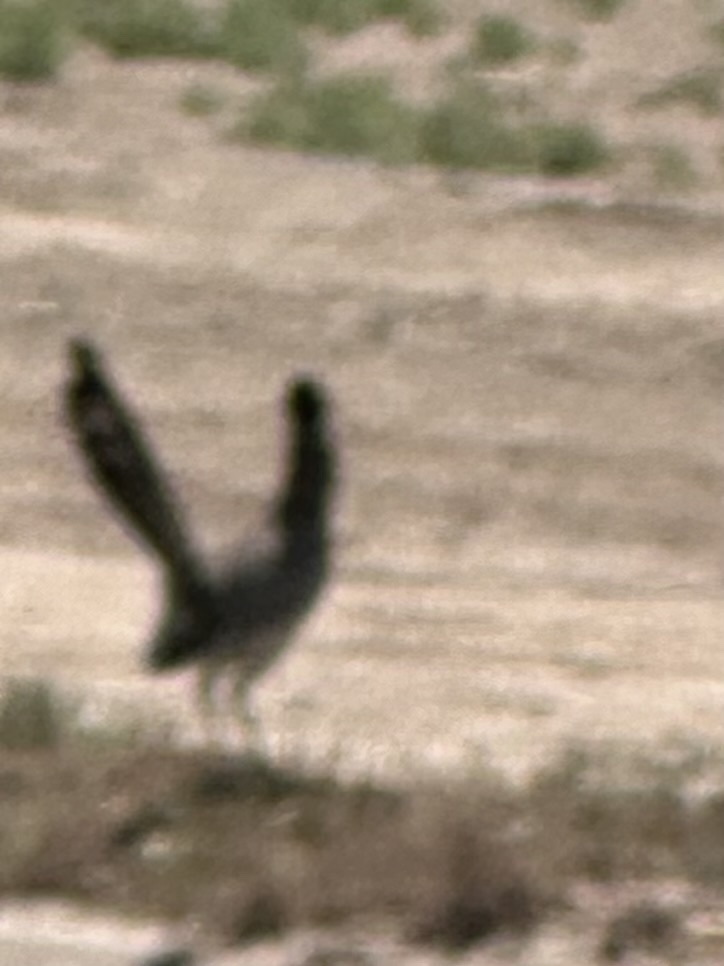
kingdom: Animalia
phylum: Chordata
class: Aves
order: Cuculiformes
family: Cuculidae
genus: Geococcyx
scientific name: Geococcyx californianus
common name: Greater roadrunner
